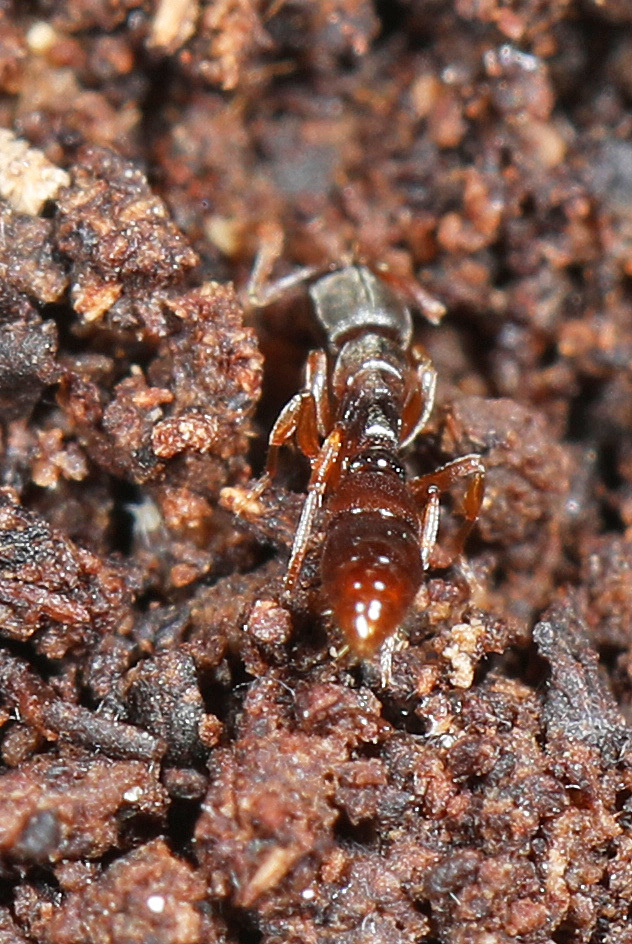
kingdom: Animalia
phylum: Arthropoda
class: Insecta
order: Hymenoptera
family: Formicidae
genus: Stigmatomma
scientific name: Stigmatomma pallipes
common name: Vampire ant
